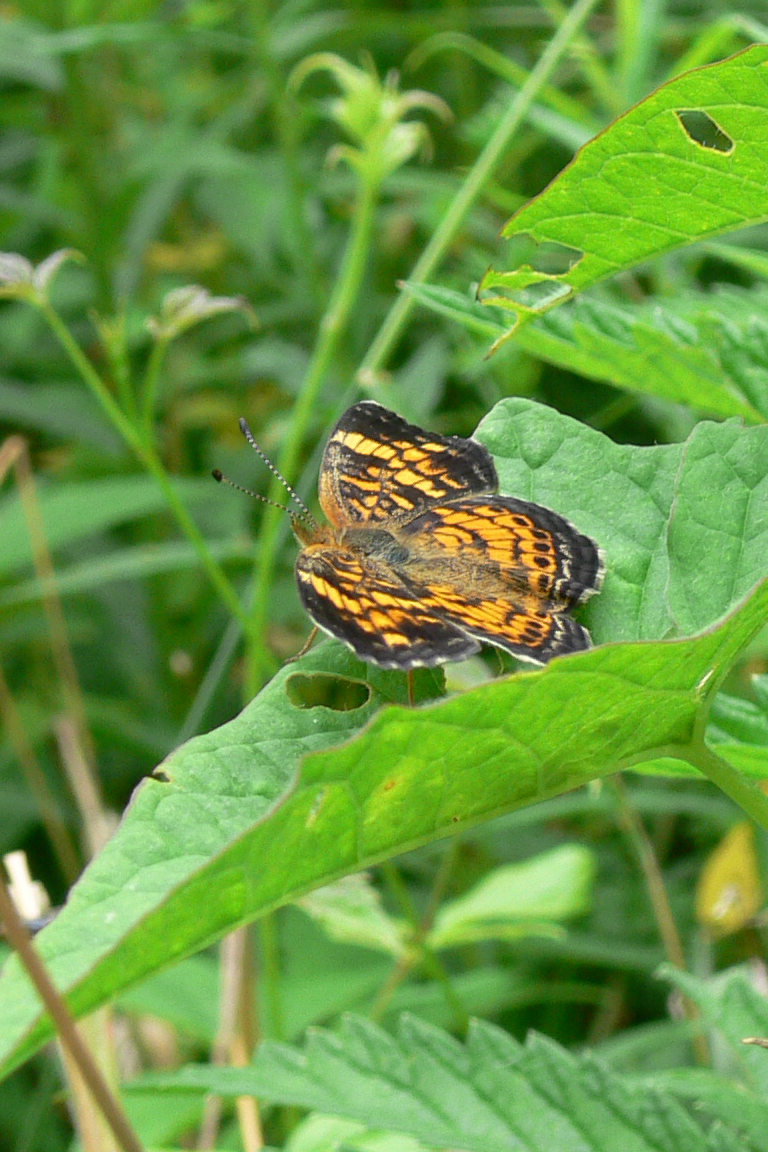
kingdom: Animalia
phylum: Arthropoda
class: Insecta
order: Lepidoptera
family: Nymphalidae
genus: Phyciodes
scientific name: Phyciodes tharos
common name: Pearl crescent
